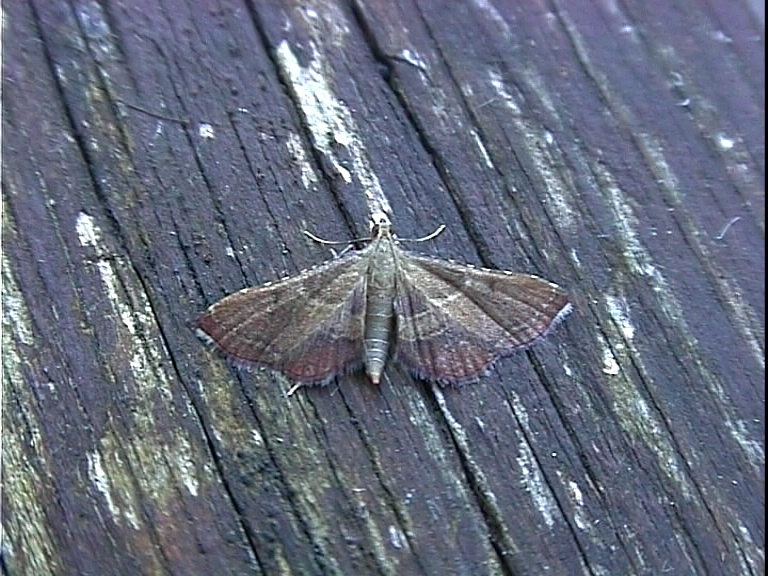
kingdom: Animalia
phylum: Arthropoda
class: Insecta
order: Lepidoptera
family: Pyralidae
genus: Endotricha
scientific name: Endotricha flammealis
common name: Rosy tabby
